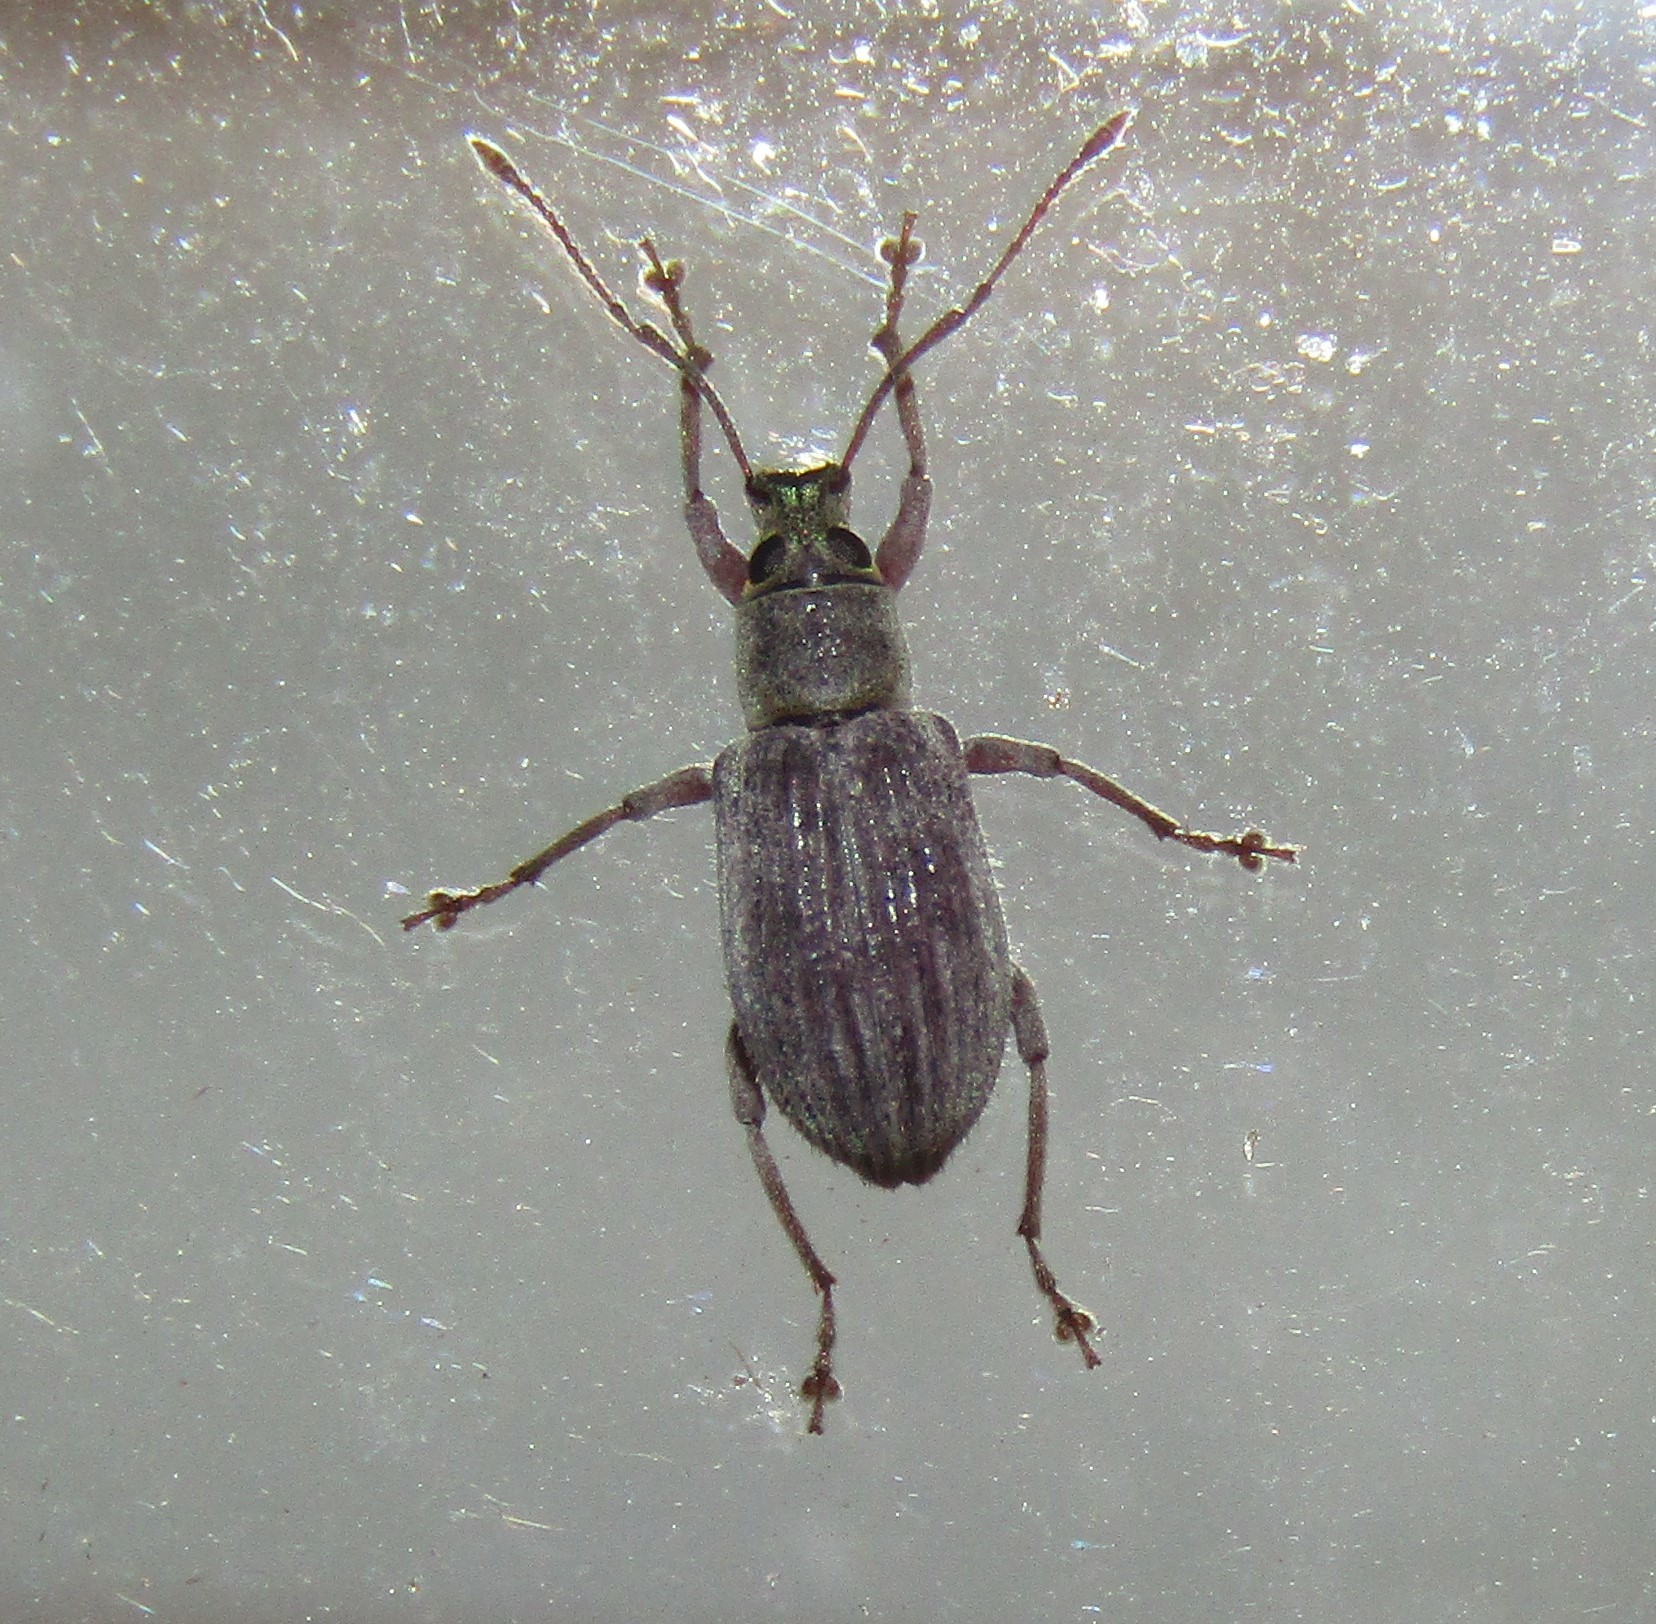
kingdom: Animalia
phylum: Arthropoda
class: Insecta
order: Coleoptera
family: Curculionidae
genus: Cyrtepistomus
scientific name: Cyrtepistomus castaneus
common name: Weevil
